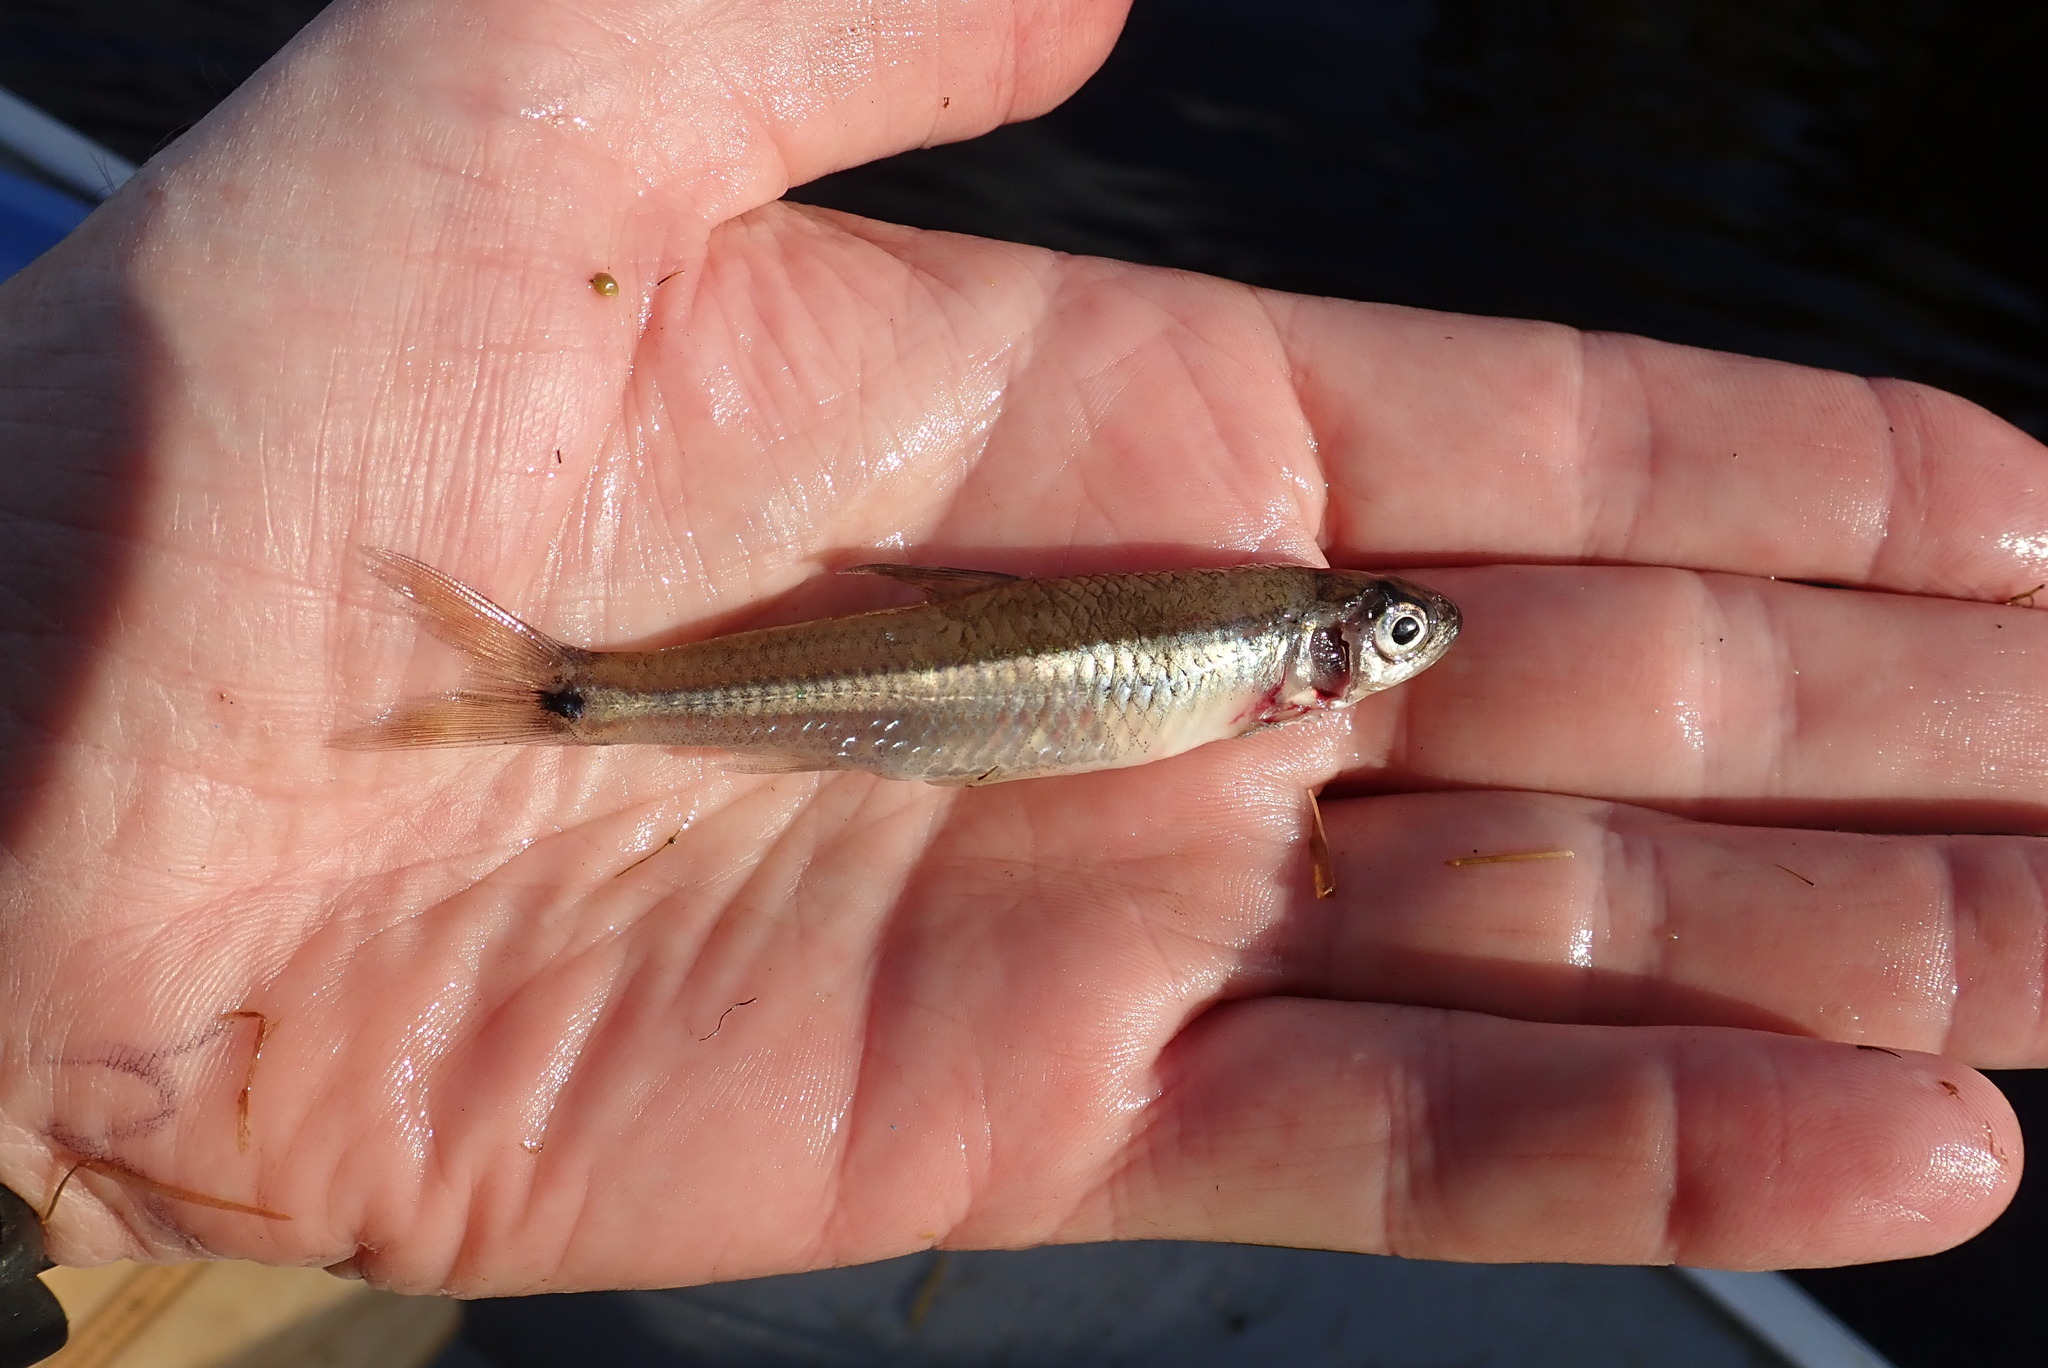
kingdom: Animalia
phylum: Chordata
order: Cypriniformes
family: Cyprinidae
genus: Notropis
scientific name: Notropis
